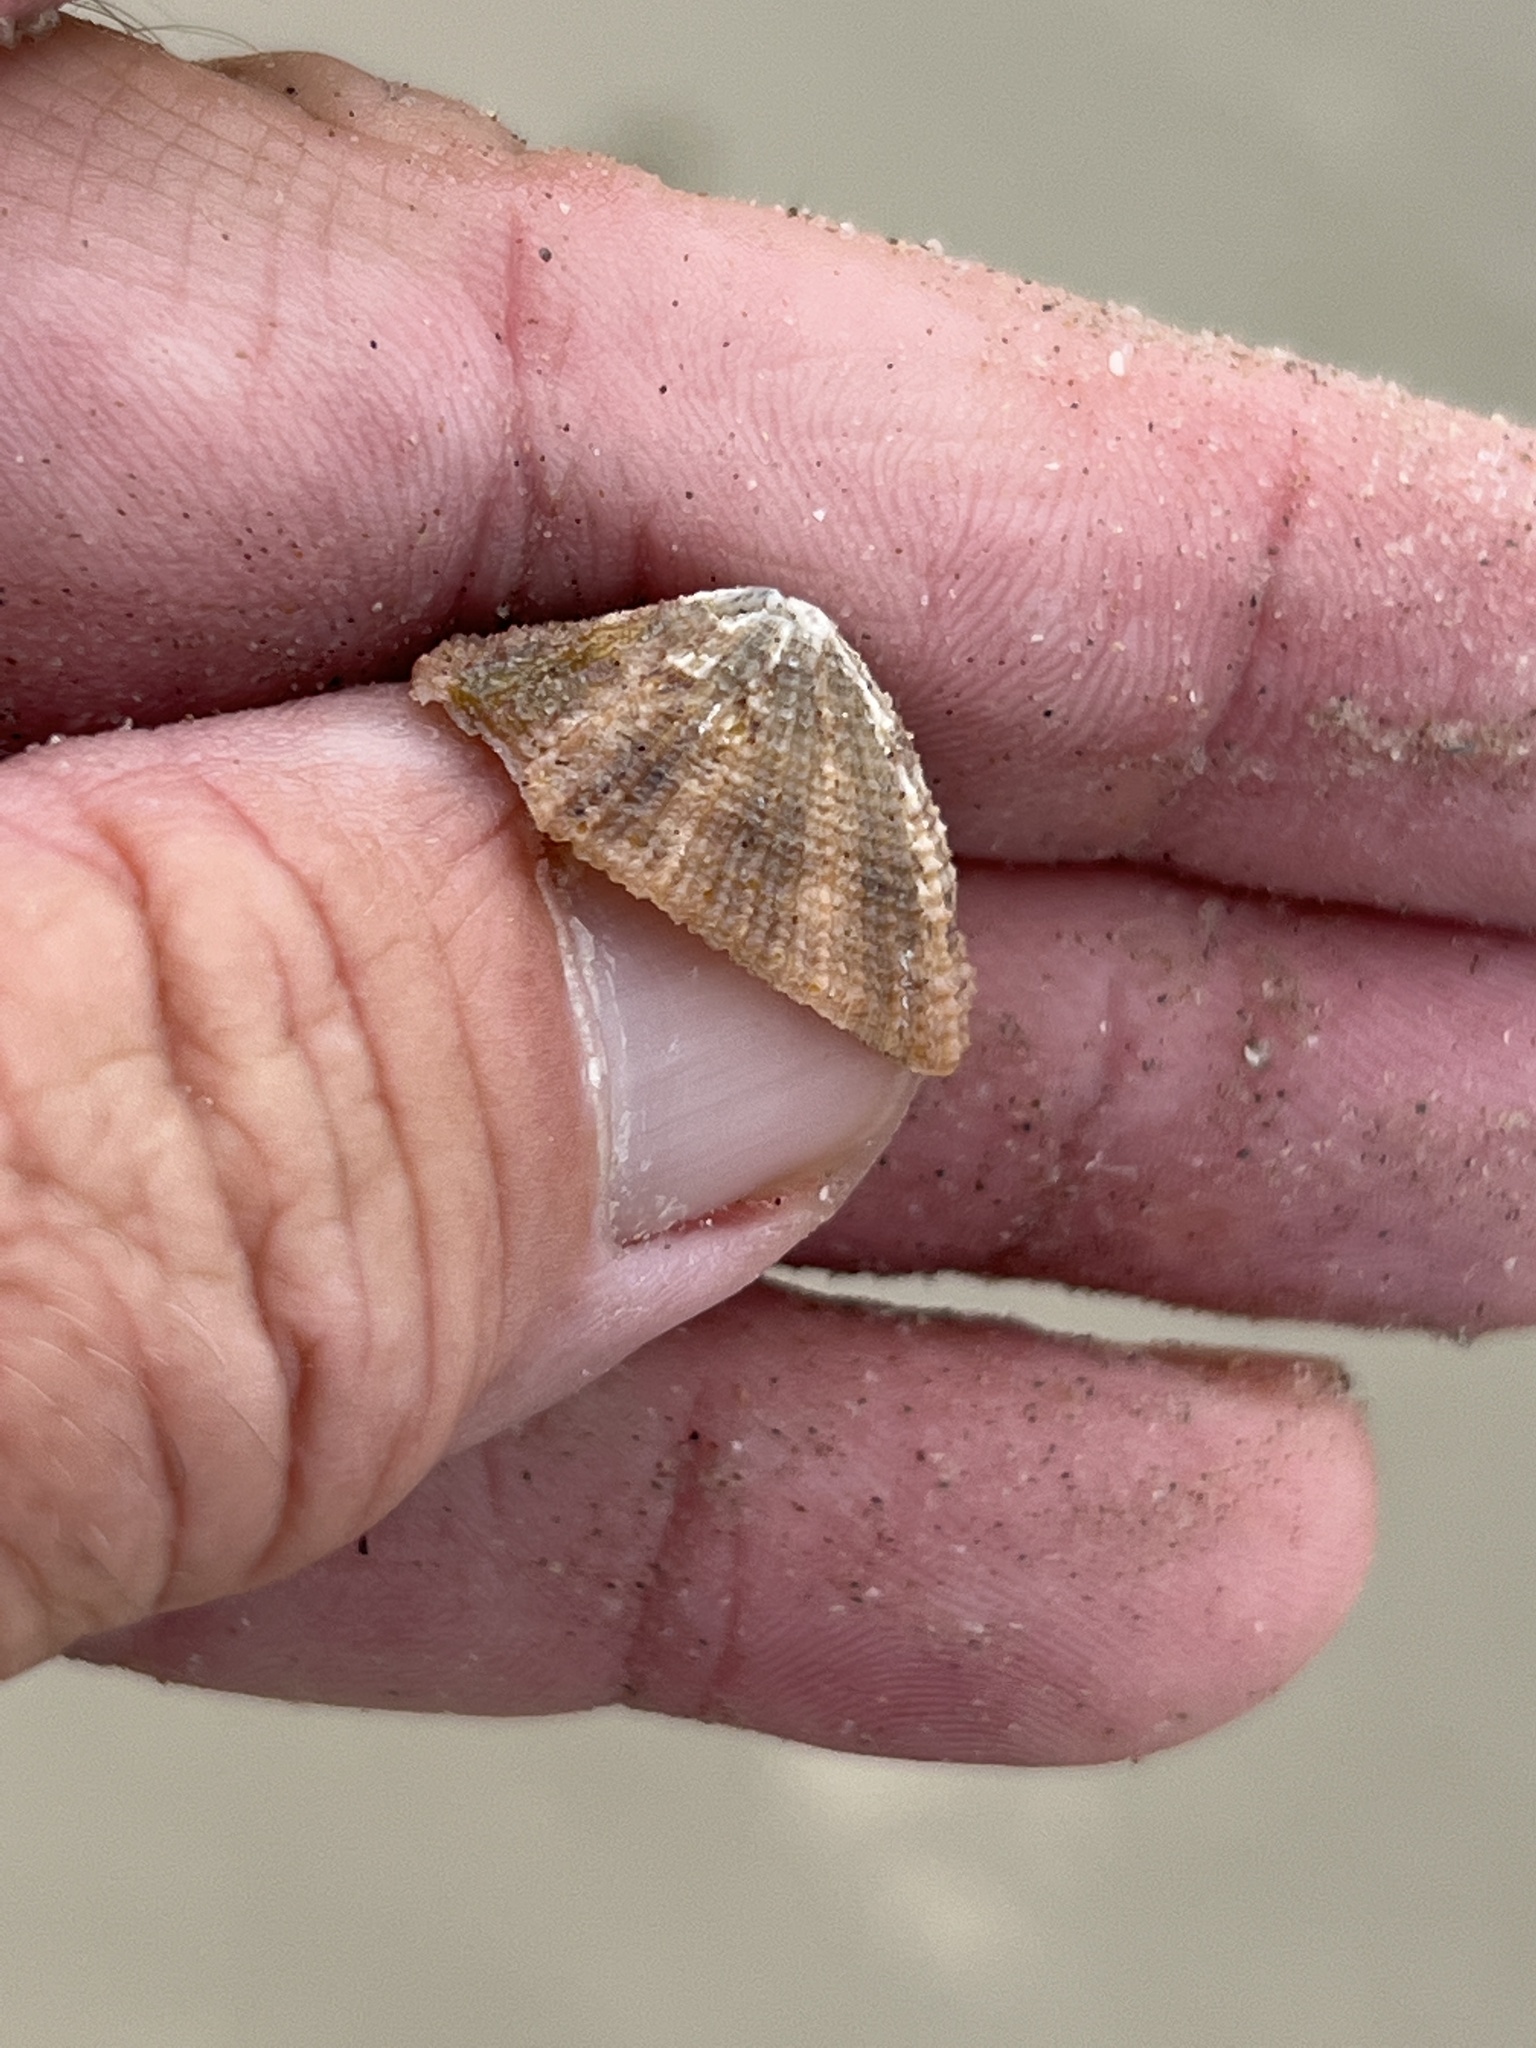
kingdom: Animalia
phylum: Mollusca
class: Gastropoda
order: Lepetellida
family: Fissurellidae
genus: Diodora
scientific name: Diodora cayenensis
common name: Cayenne keyhole limpet
